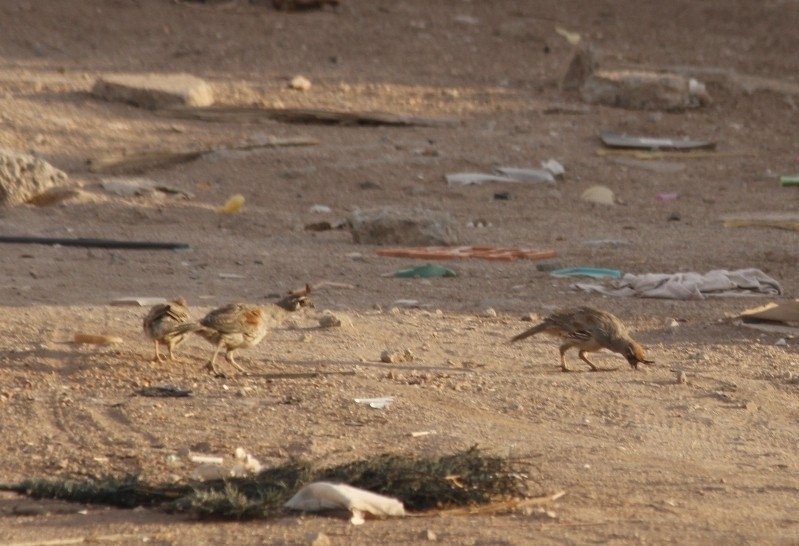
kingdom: Animalia
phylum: Chordata
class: Aves
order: Galliformes
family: Odontophoridae
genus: Callipepla
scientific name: Callipepla gambelii
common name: Gambel's quail
